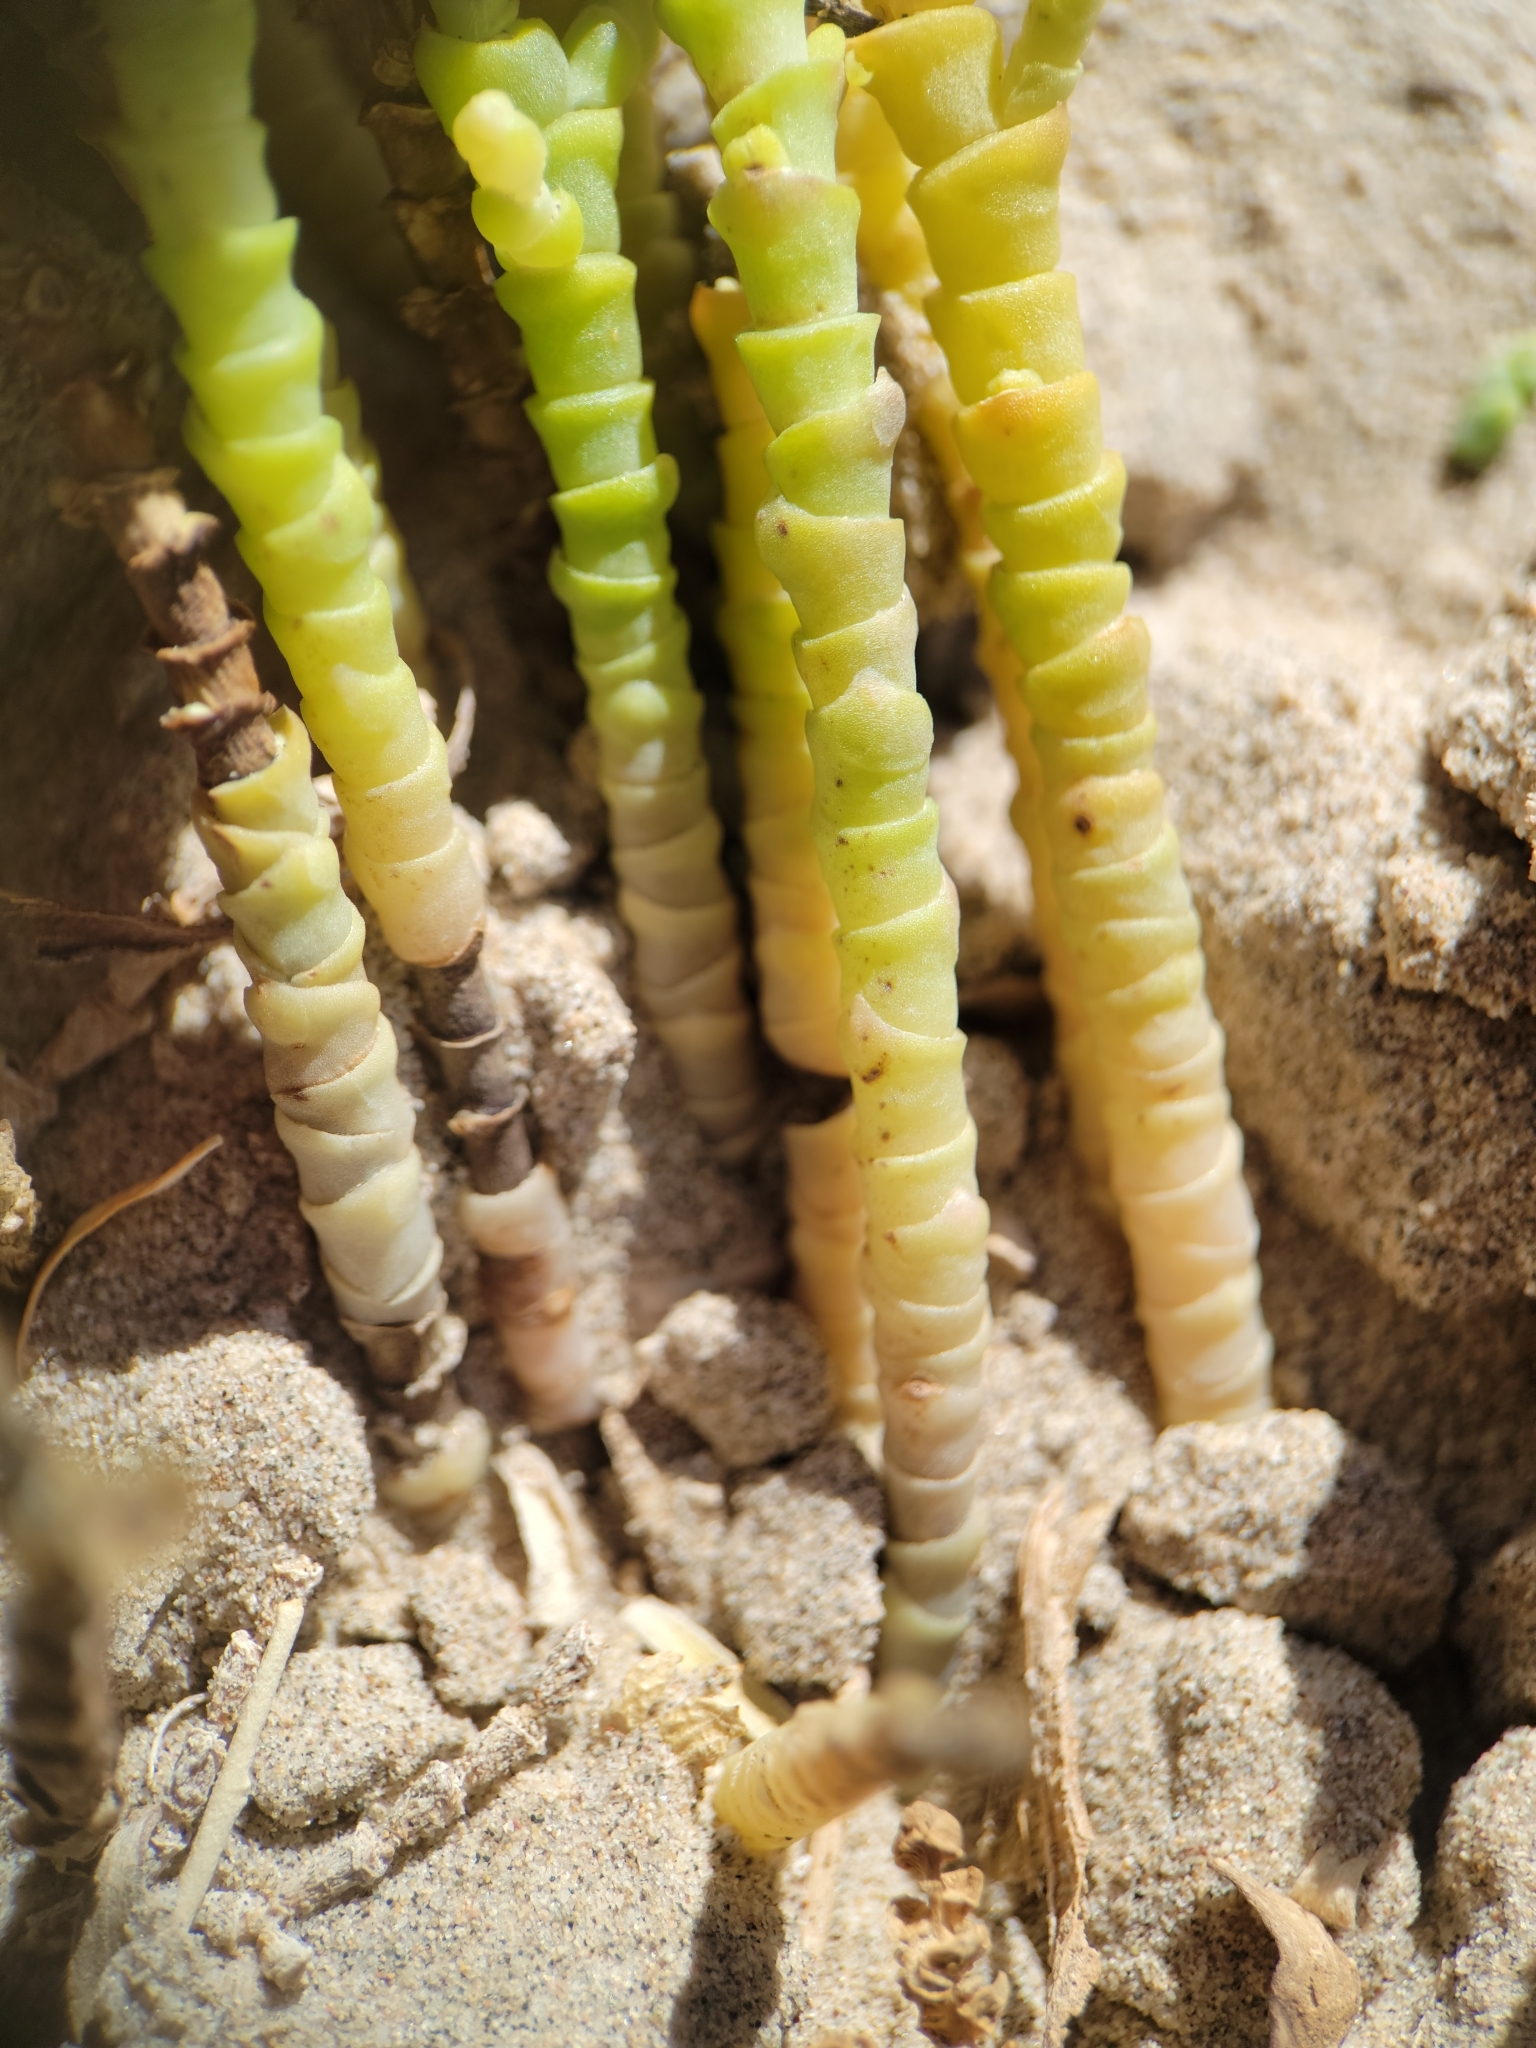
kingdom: Plantae
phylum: Tracheophyta
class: Magnoliopsida
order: Caryophyllales
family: Amaranthaceae
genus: Allenrolfea
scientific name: Allenrolfea occidentalis
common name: Iodine-bush
